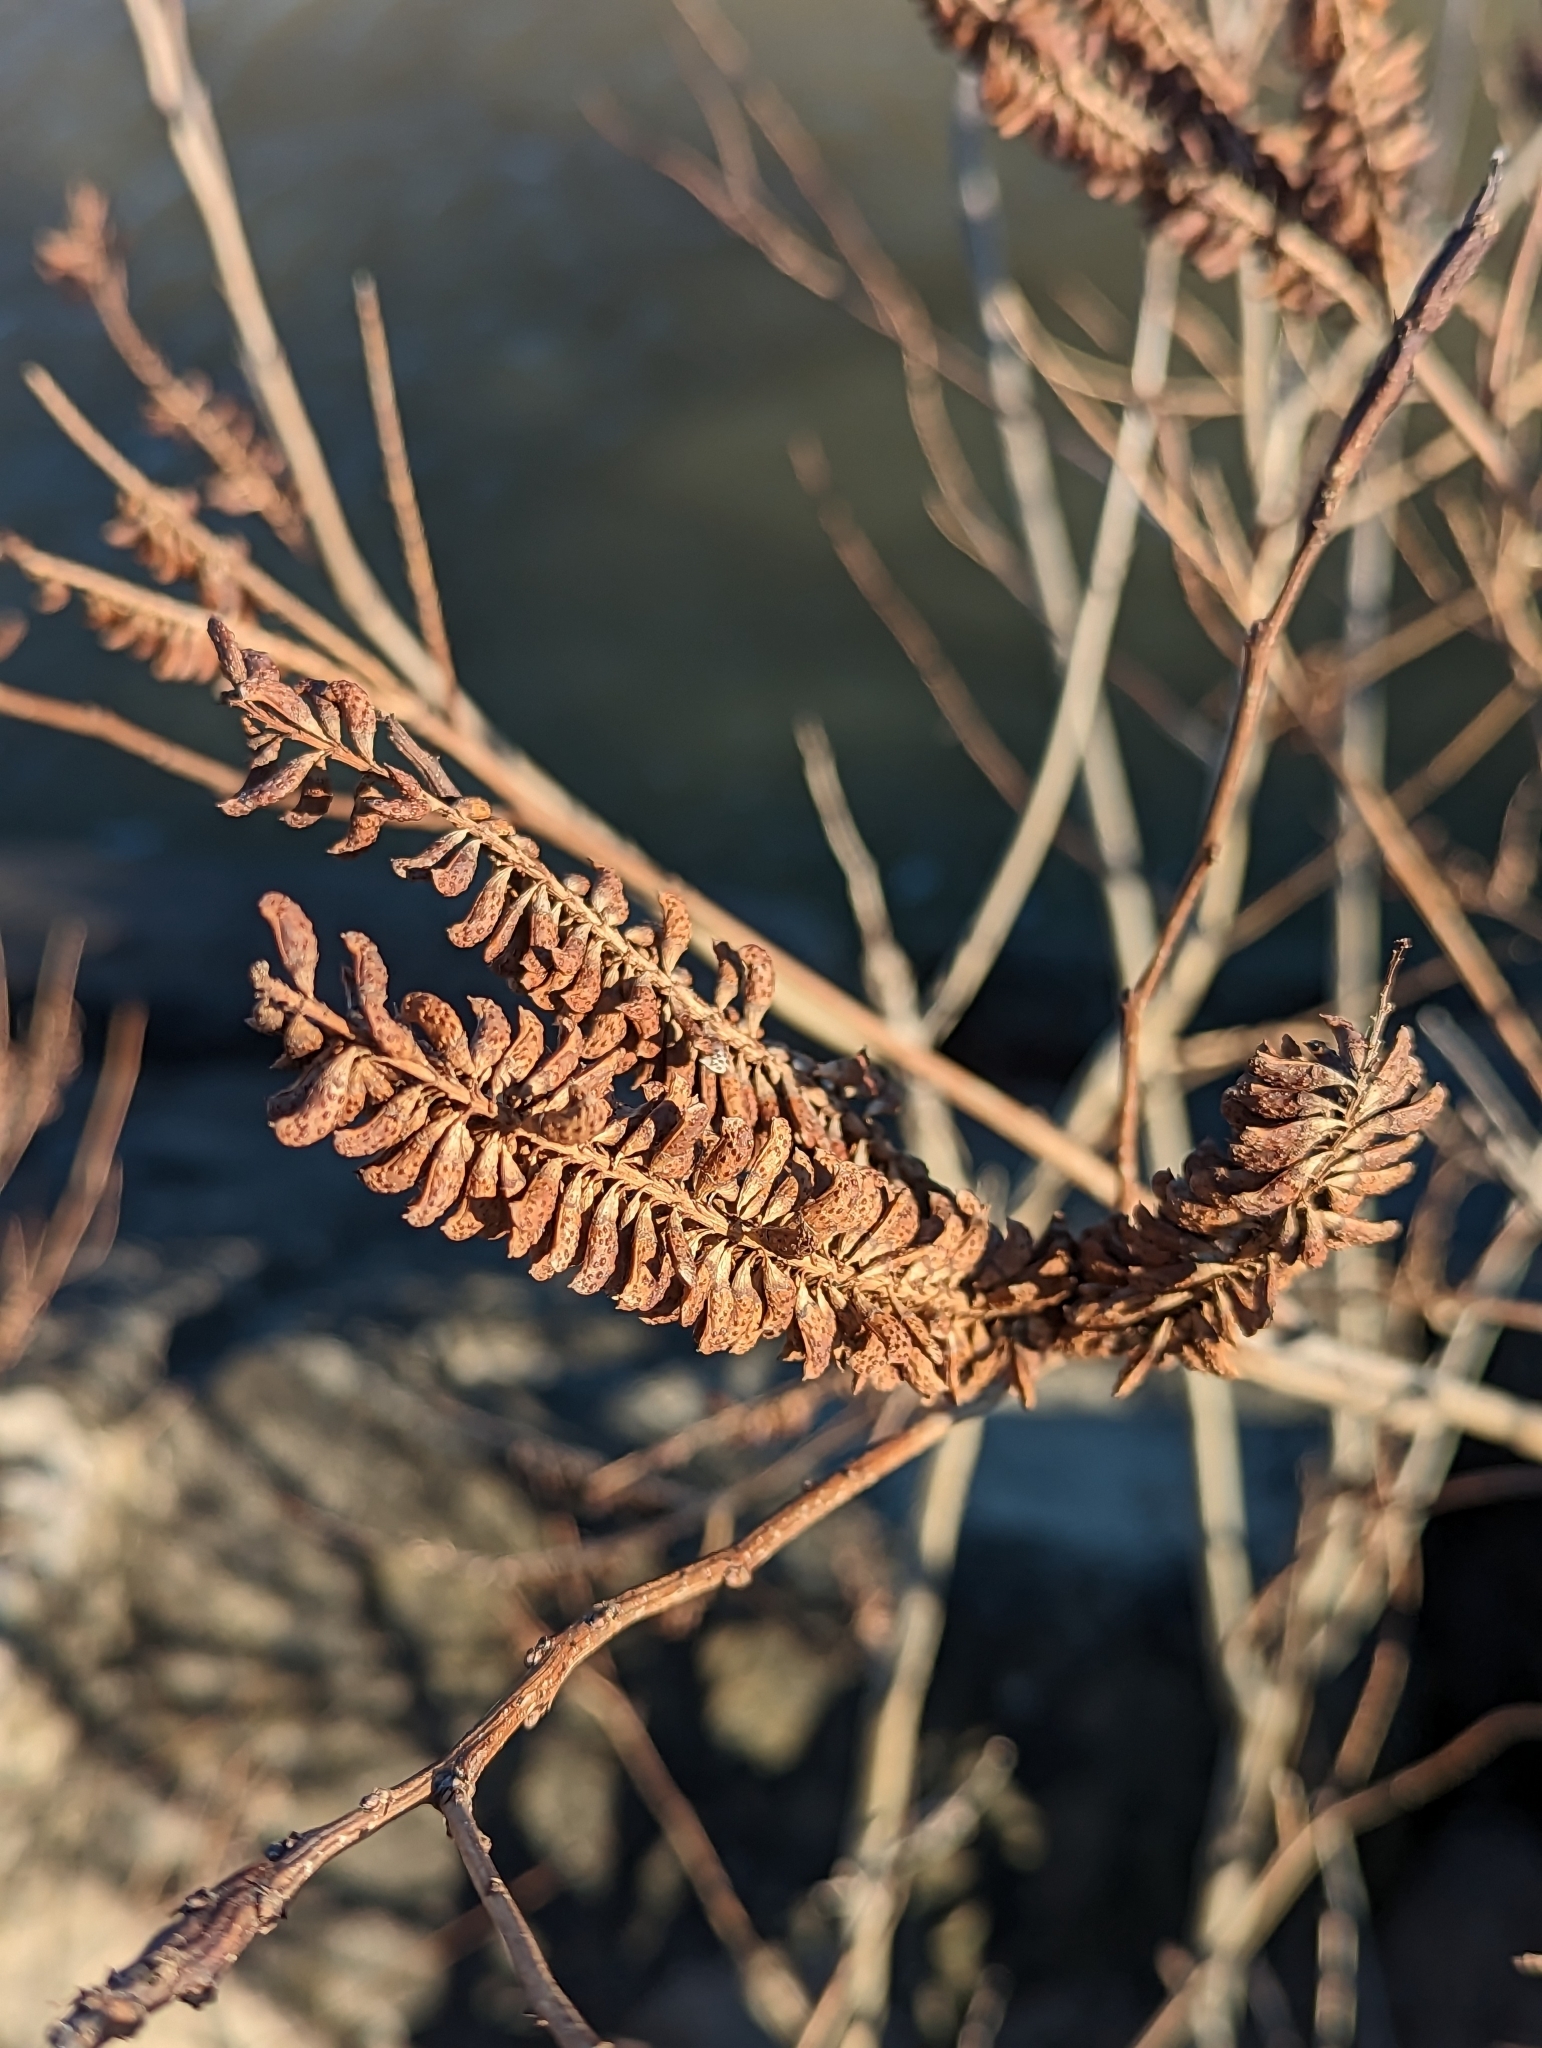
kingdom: Plantae
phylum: Tracheophyta
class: Magnoliopsida
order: Fabales
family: Fabaceae
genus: Amorpha
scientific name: Amorpha fruticosa
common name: False indigo
